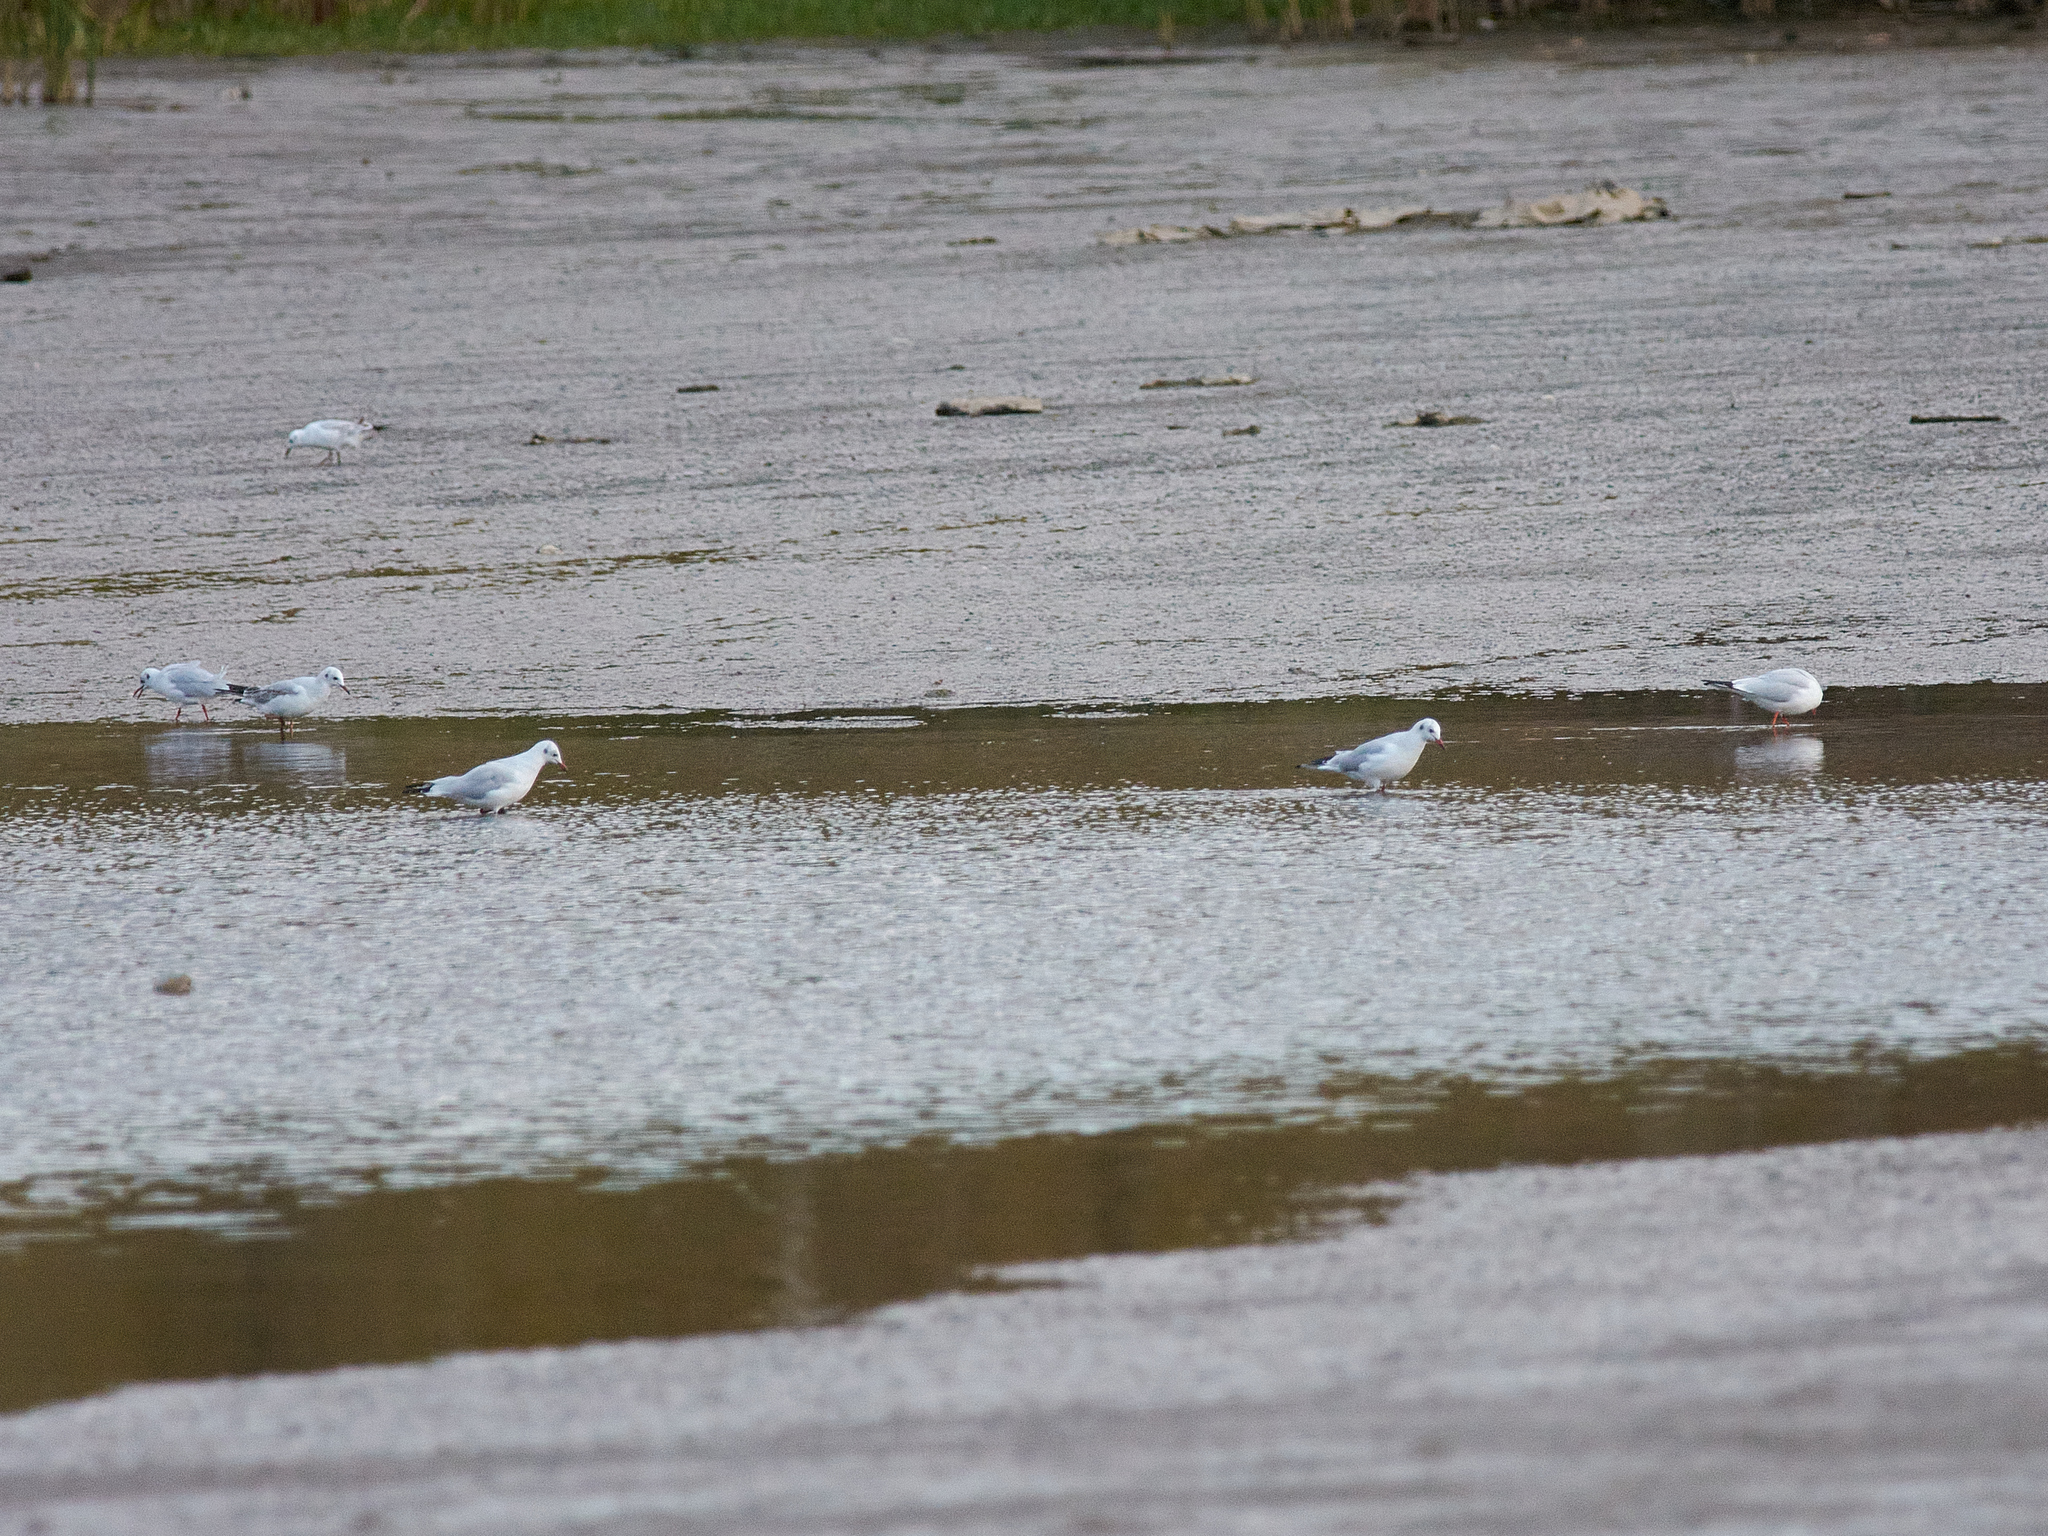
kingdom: Animalia
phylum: Chordata
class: Aves
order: Charadriiformes
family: Laridae
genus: Chroicocephalus
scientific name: Chroicocephalus ridibundus
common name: Black-headed gull
